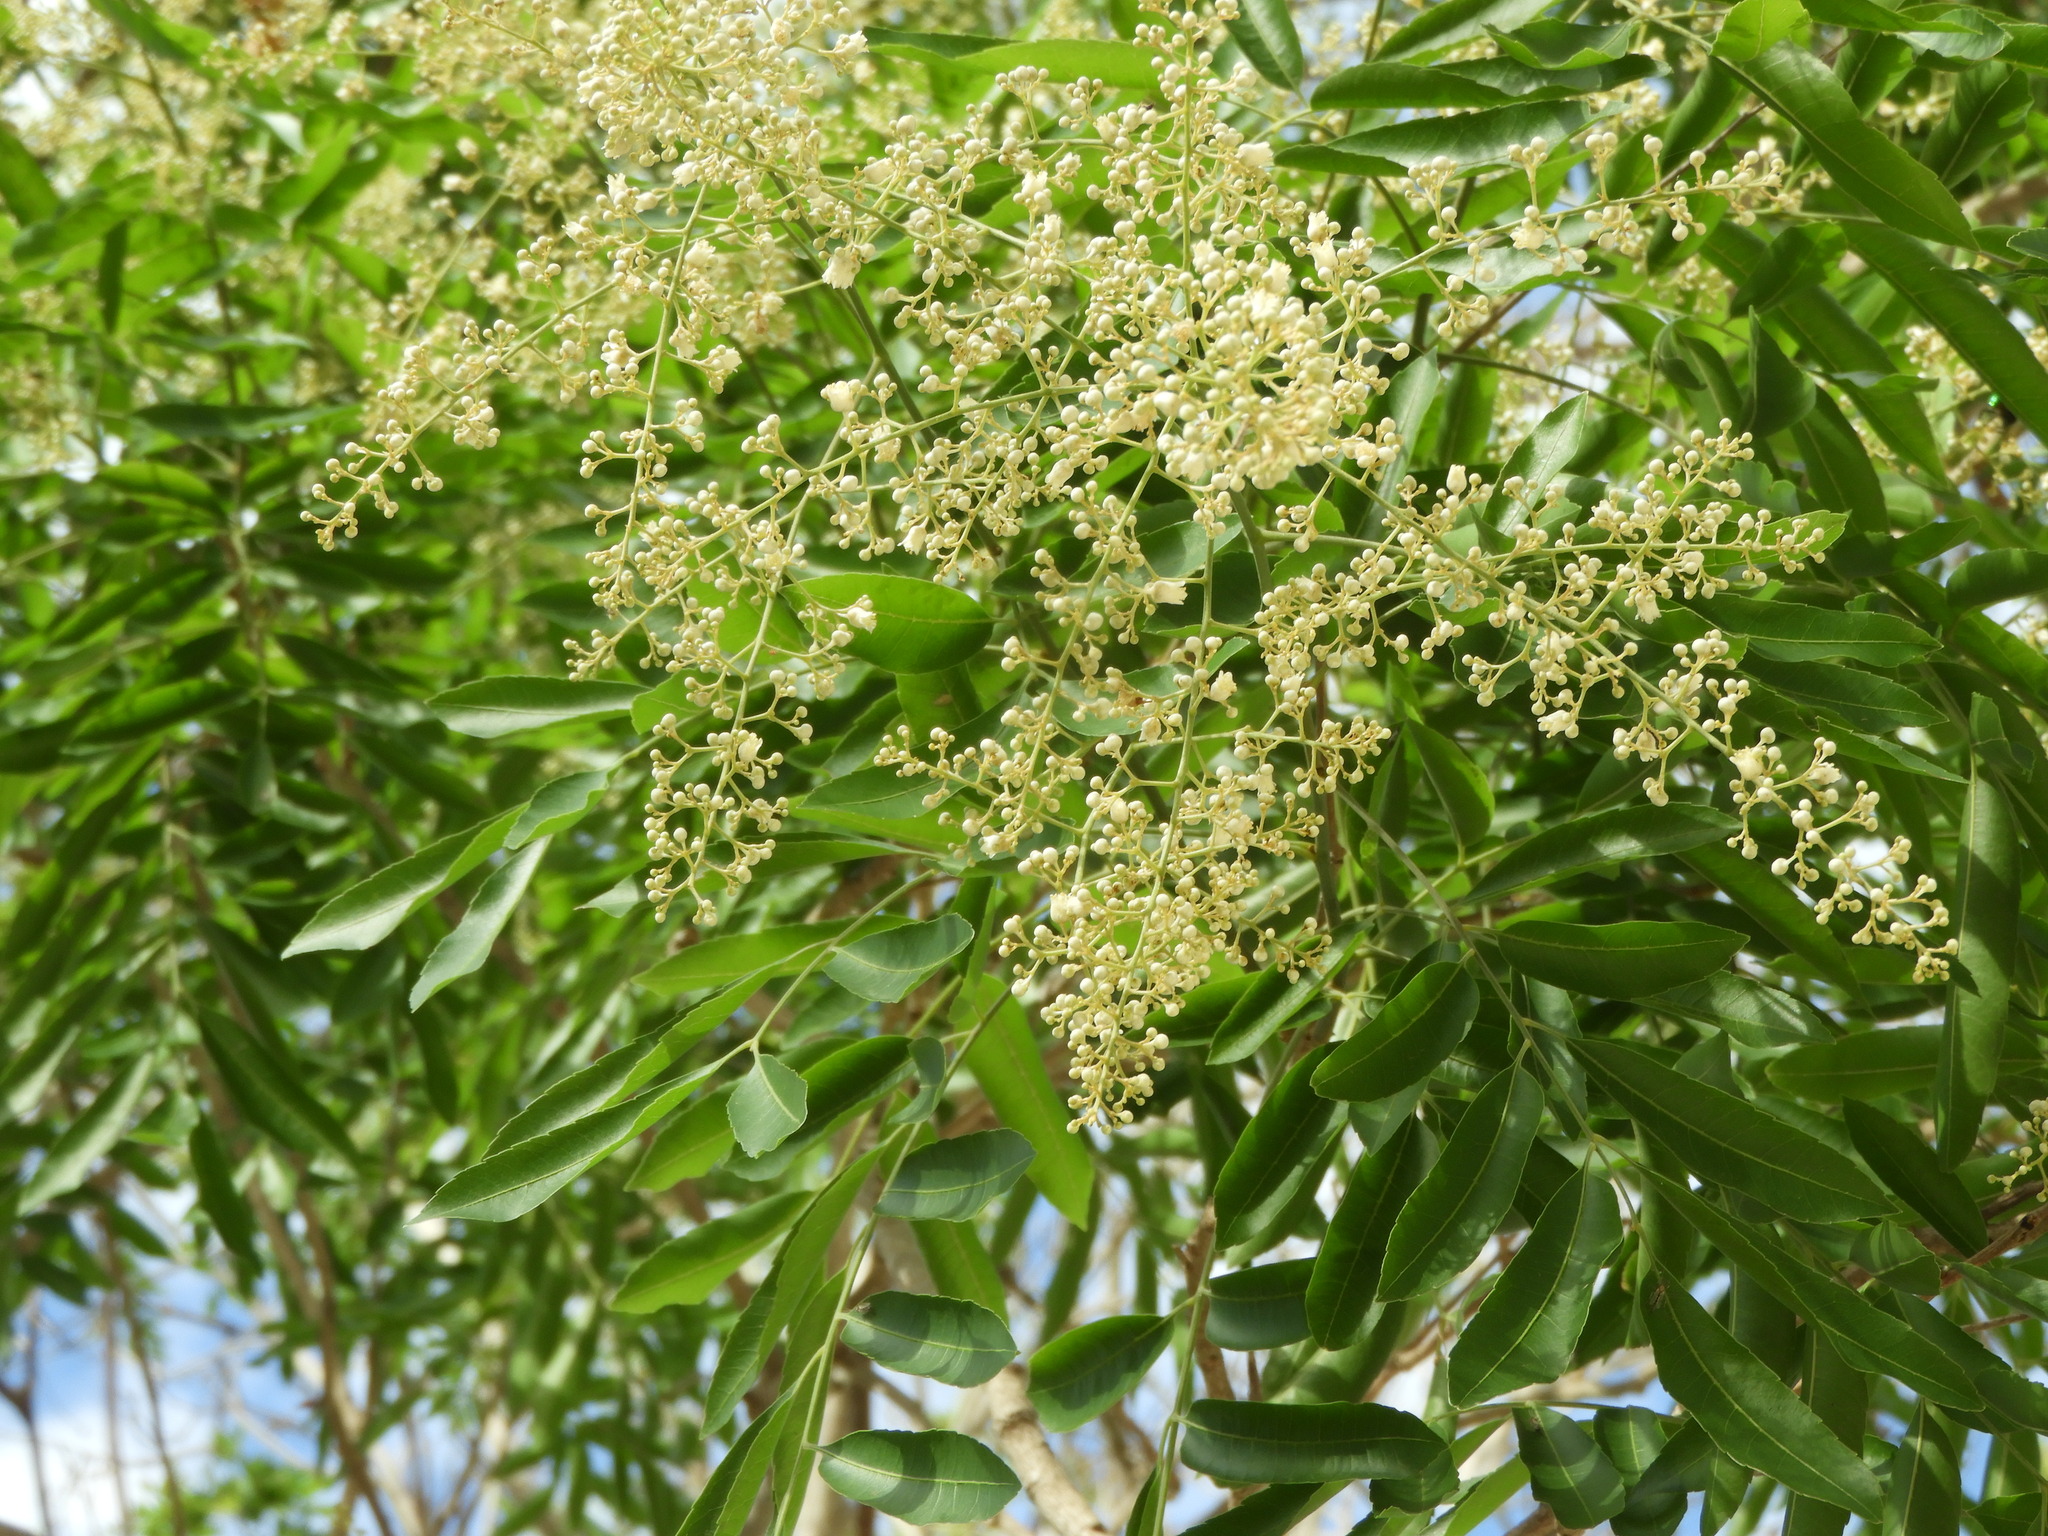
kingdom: Plantae
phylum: Tracheophyta
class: Magnoliopsida
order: Sapindales
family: Sapindaceae
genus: Thouinidium
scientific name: Thouinidium decandrum
